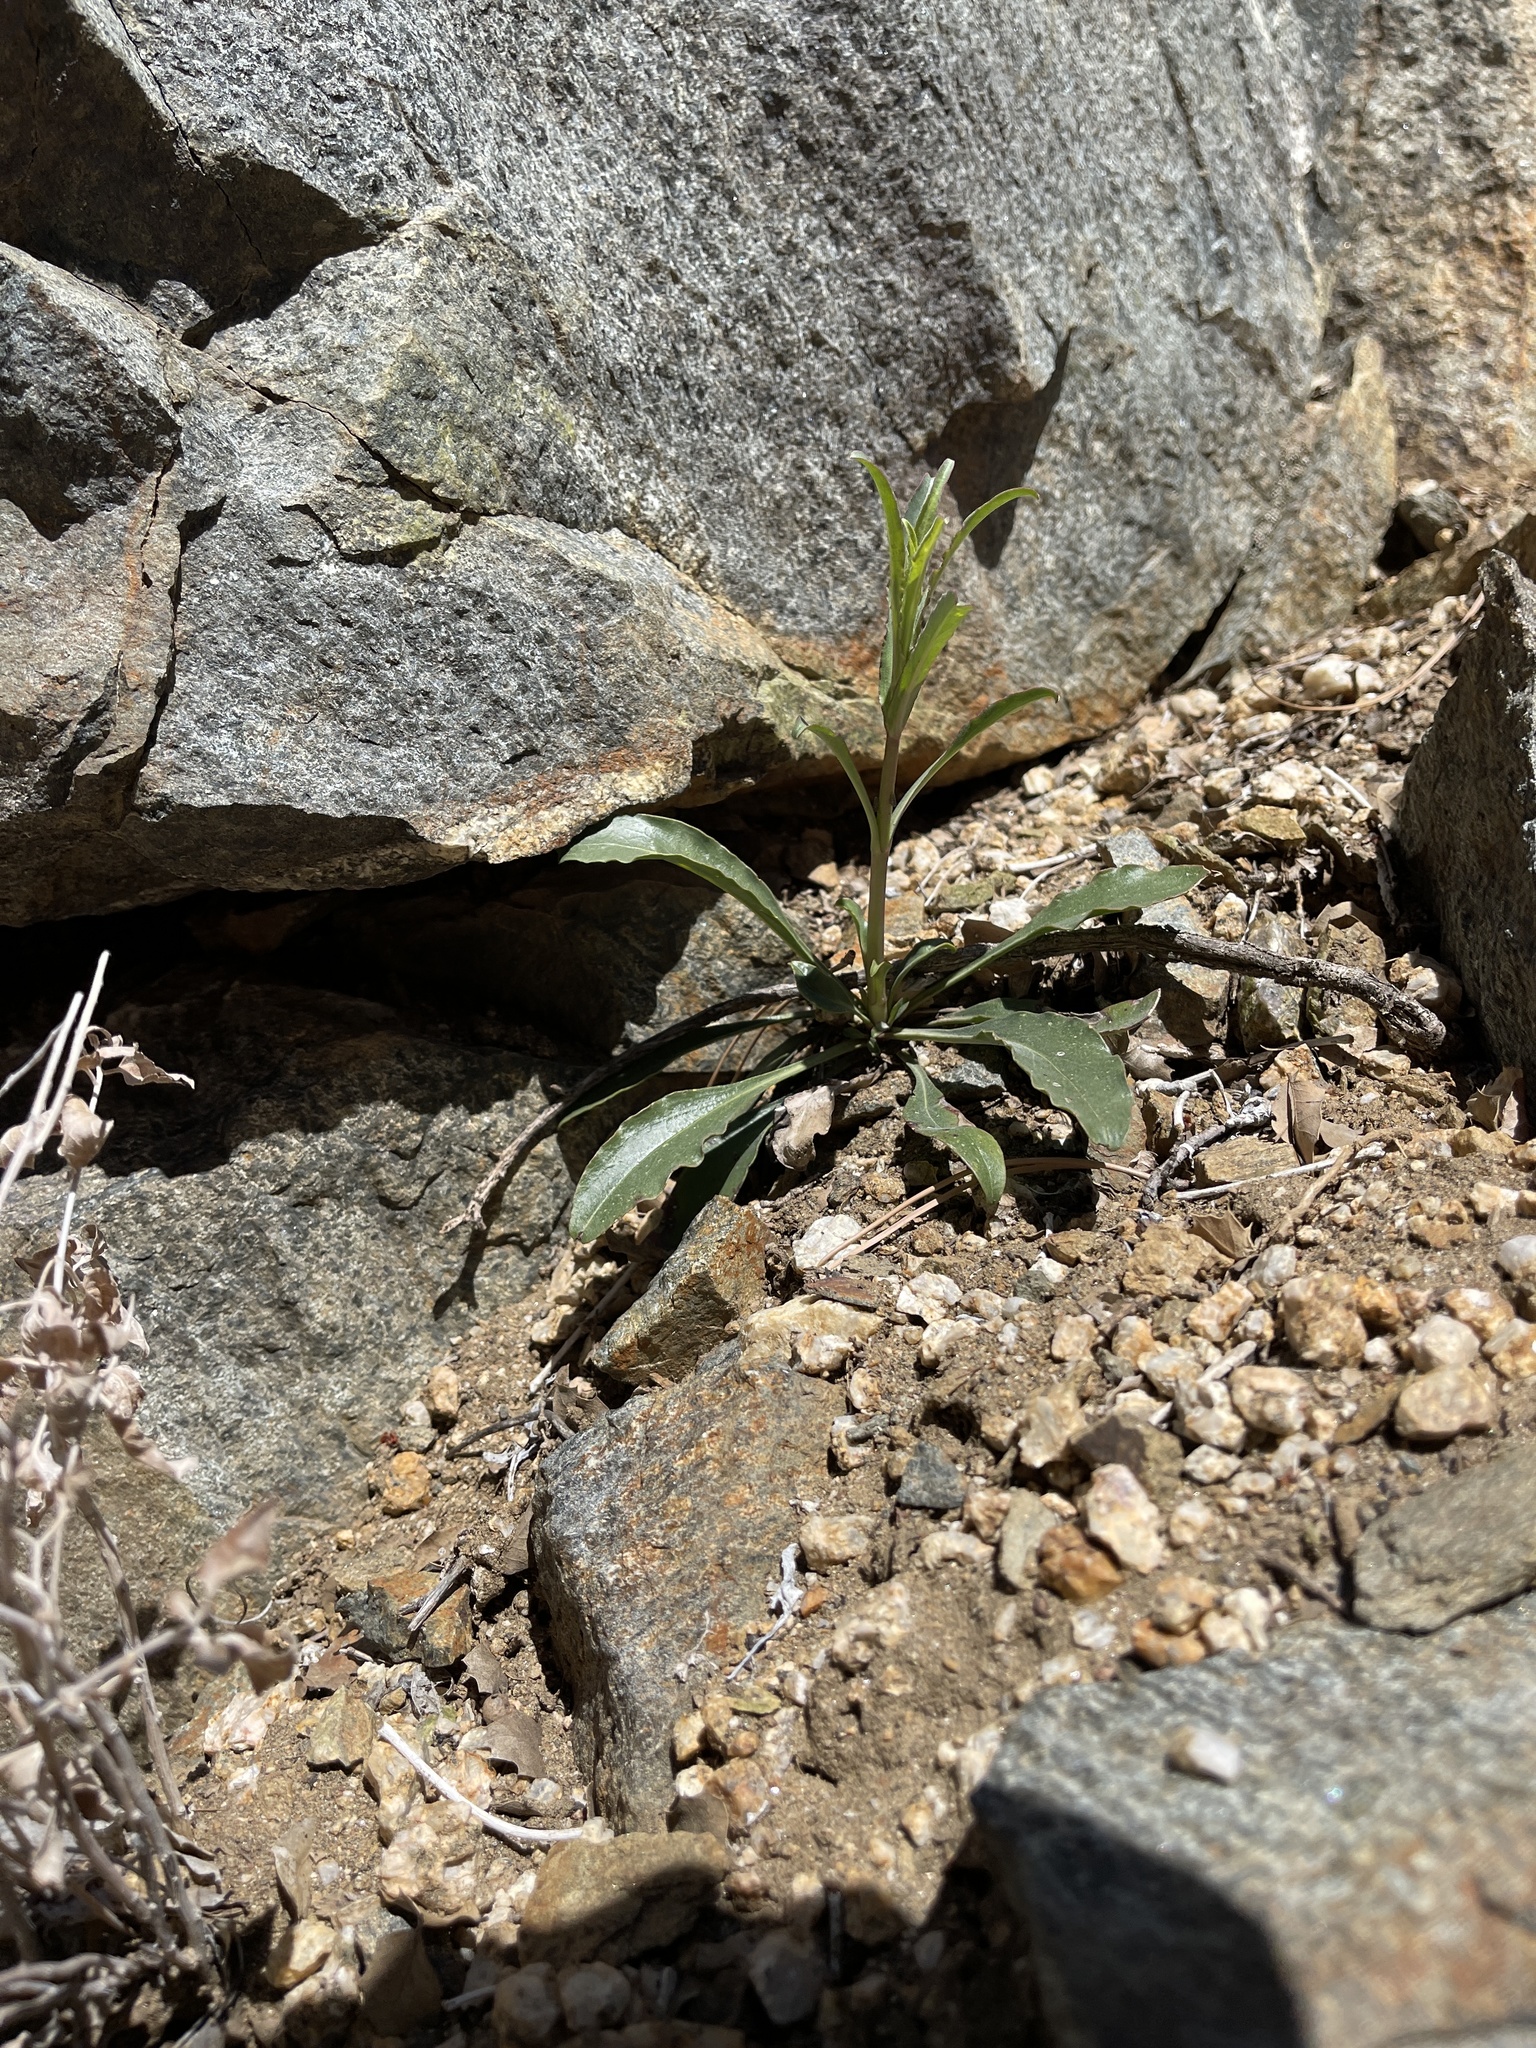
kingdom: Plantae
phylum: Tracheophyta
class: Magnoliopsida
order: Lamiales
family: Plantaginaceae
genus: Penstemon
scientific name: Penstemon eatonii
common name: Eaton's penstemon
